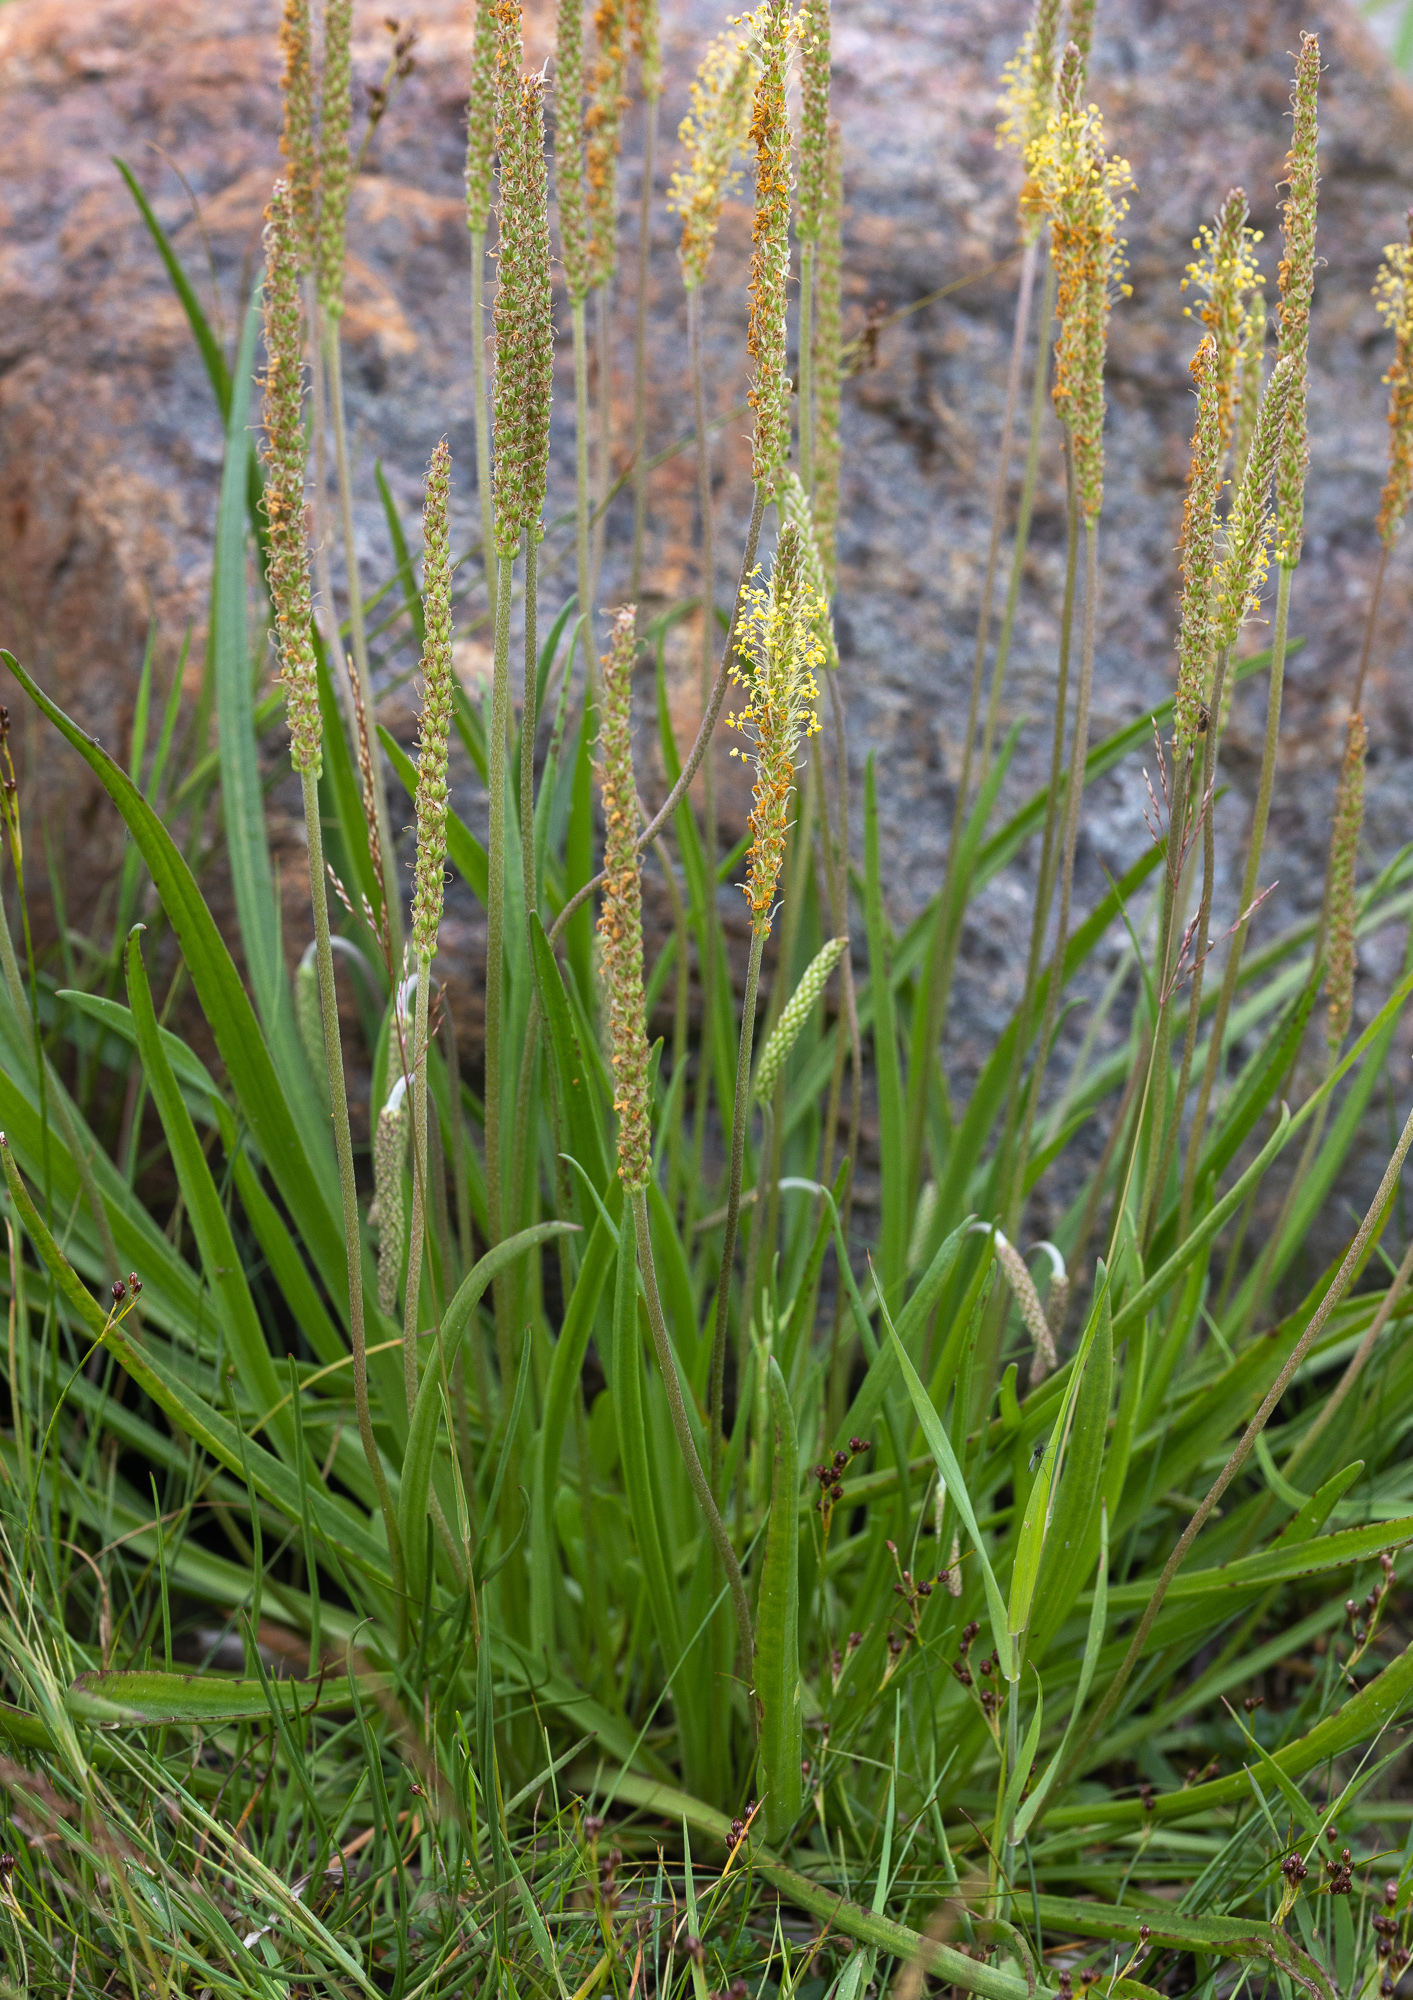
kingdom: Plantae
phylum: Tracheophyta
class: Magnoliopsida
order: Lamiales
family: Plantaginaceae
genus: Plantago
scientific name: Plantago maritima
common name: Sea plantain
